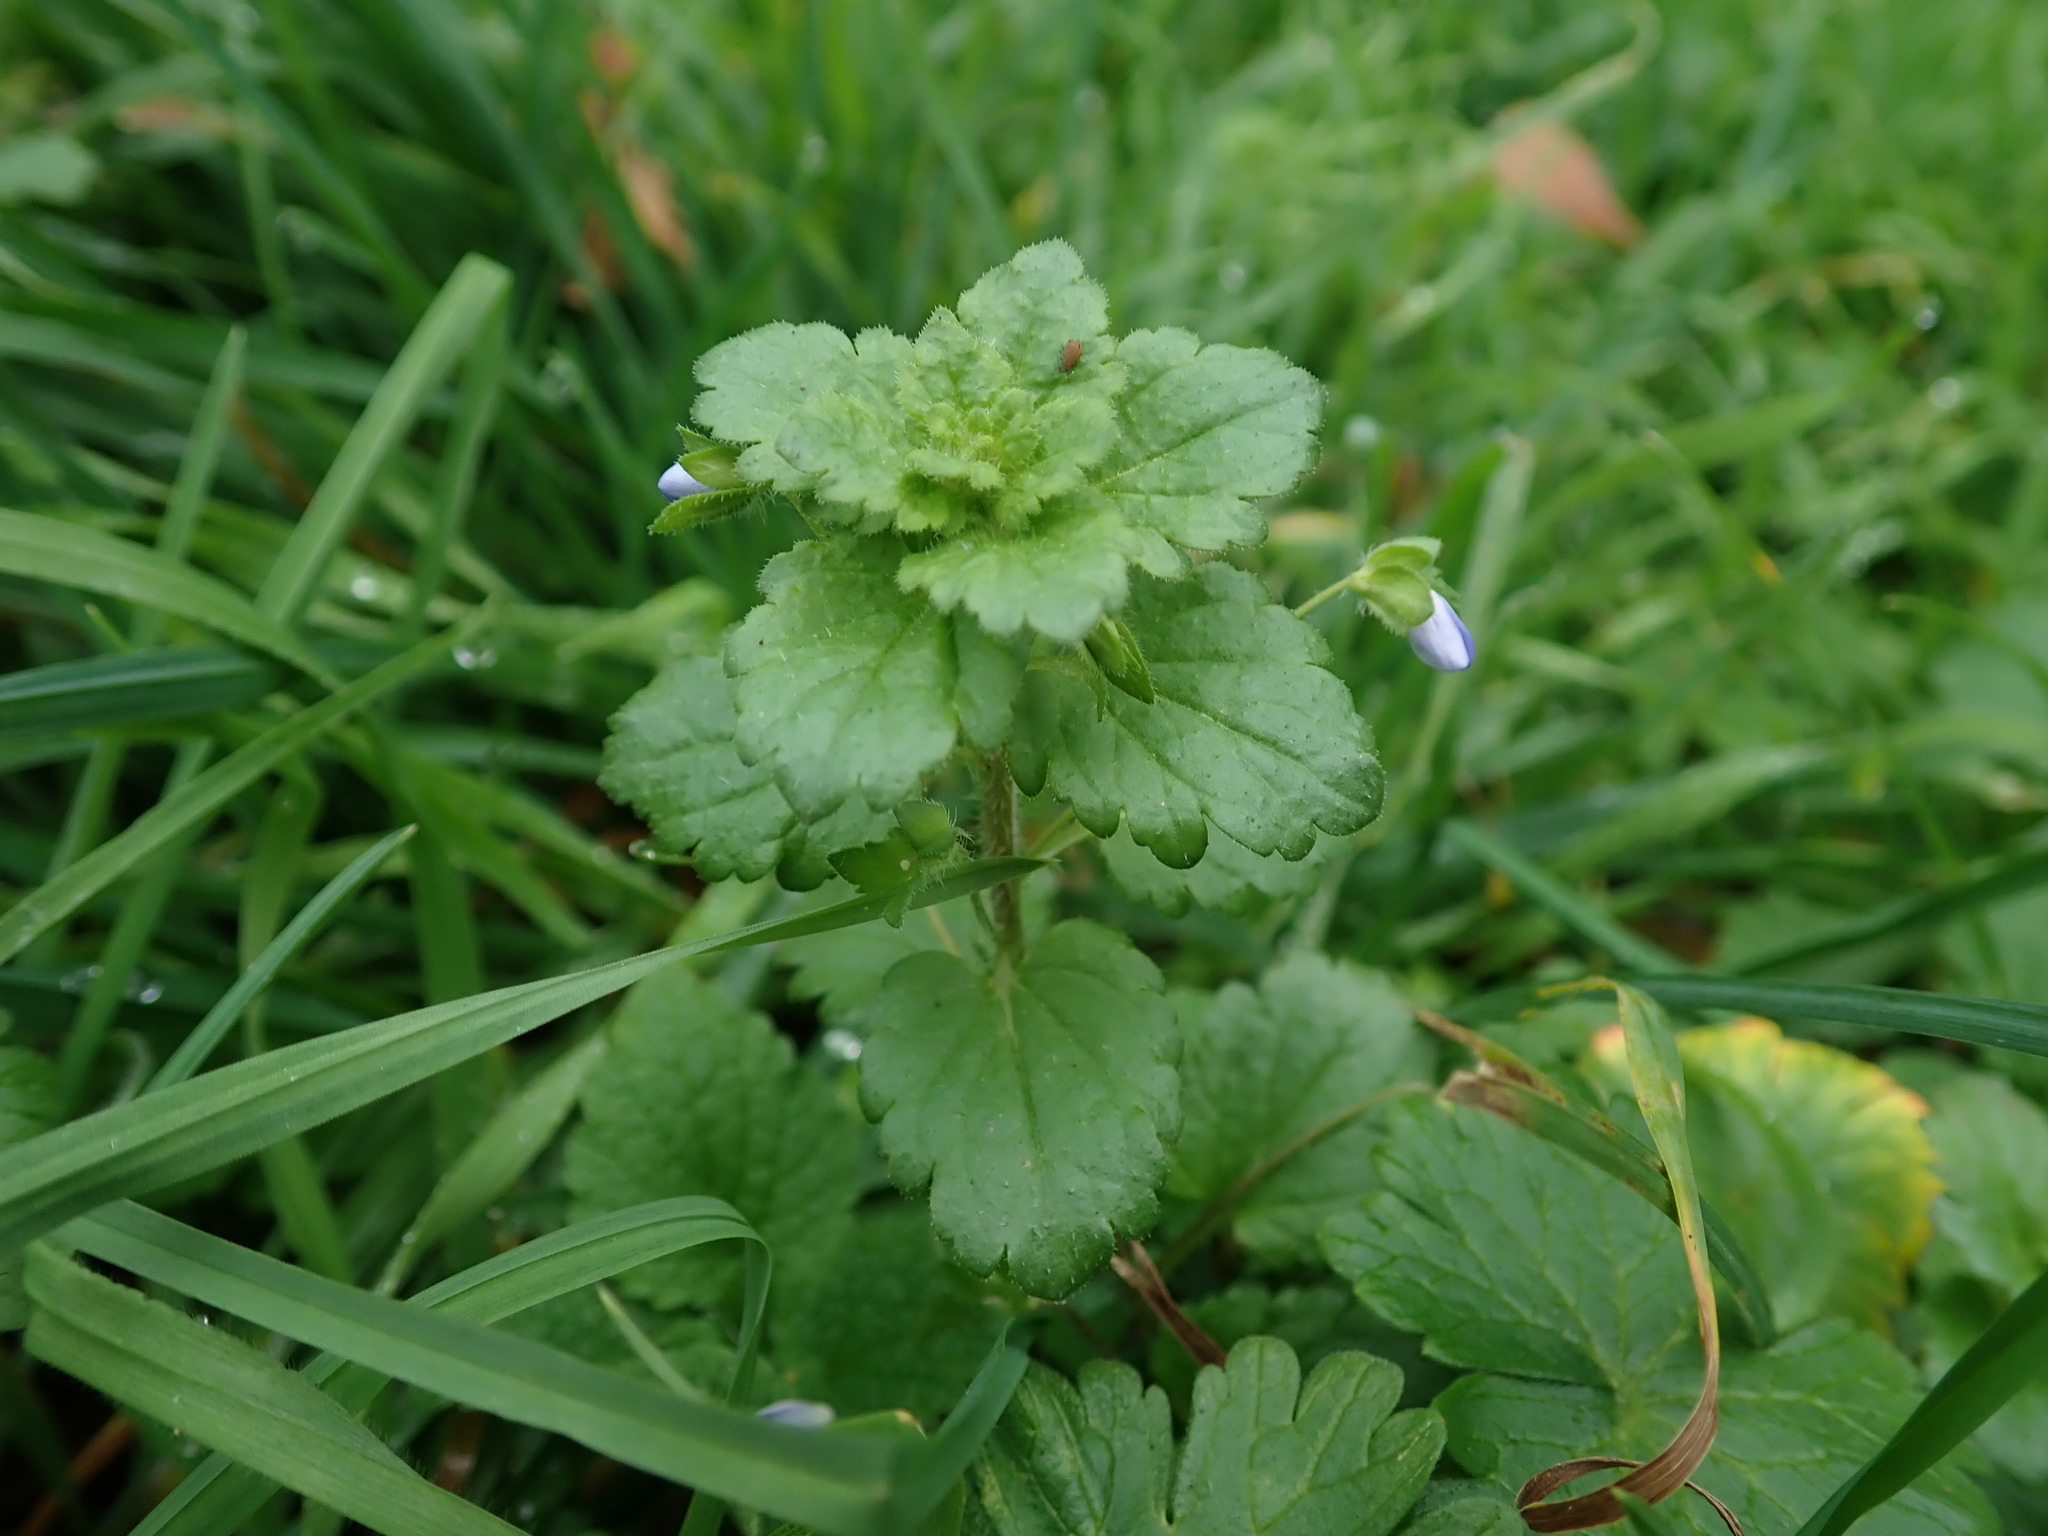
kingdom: Plantae
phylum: Tracheophyta
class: Magnoliopsida
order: Lamiales
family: Plantaginaceae
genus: Veronica
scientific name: Veronica persica
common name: Common field-speedwell
